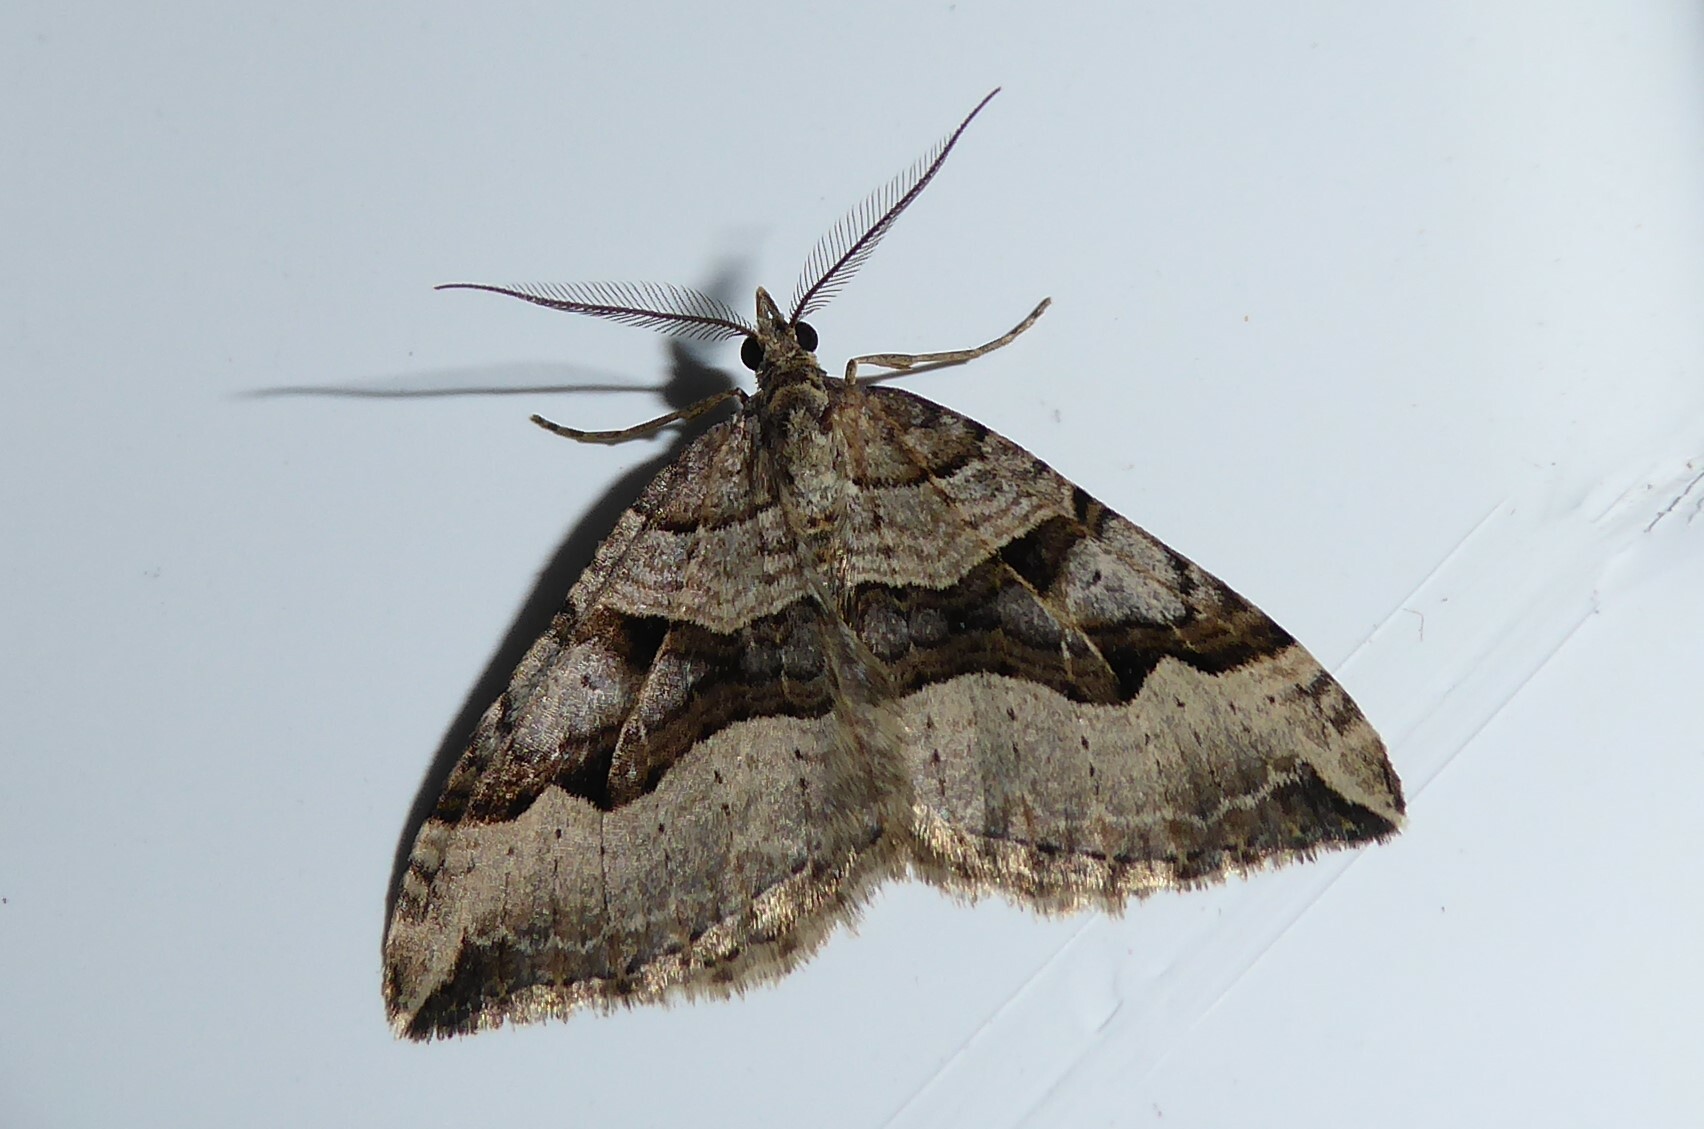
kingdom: Animalia
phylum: Arthropoda
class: Insecta
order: Lepidoptera
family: Geometridae
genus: Xanthorhoe
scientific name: Xanthorhoe semifissata
